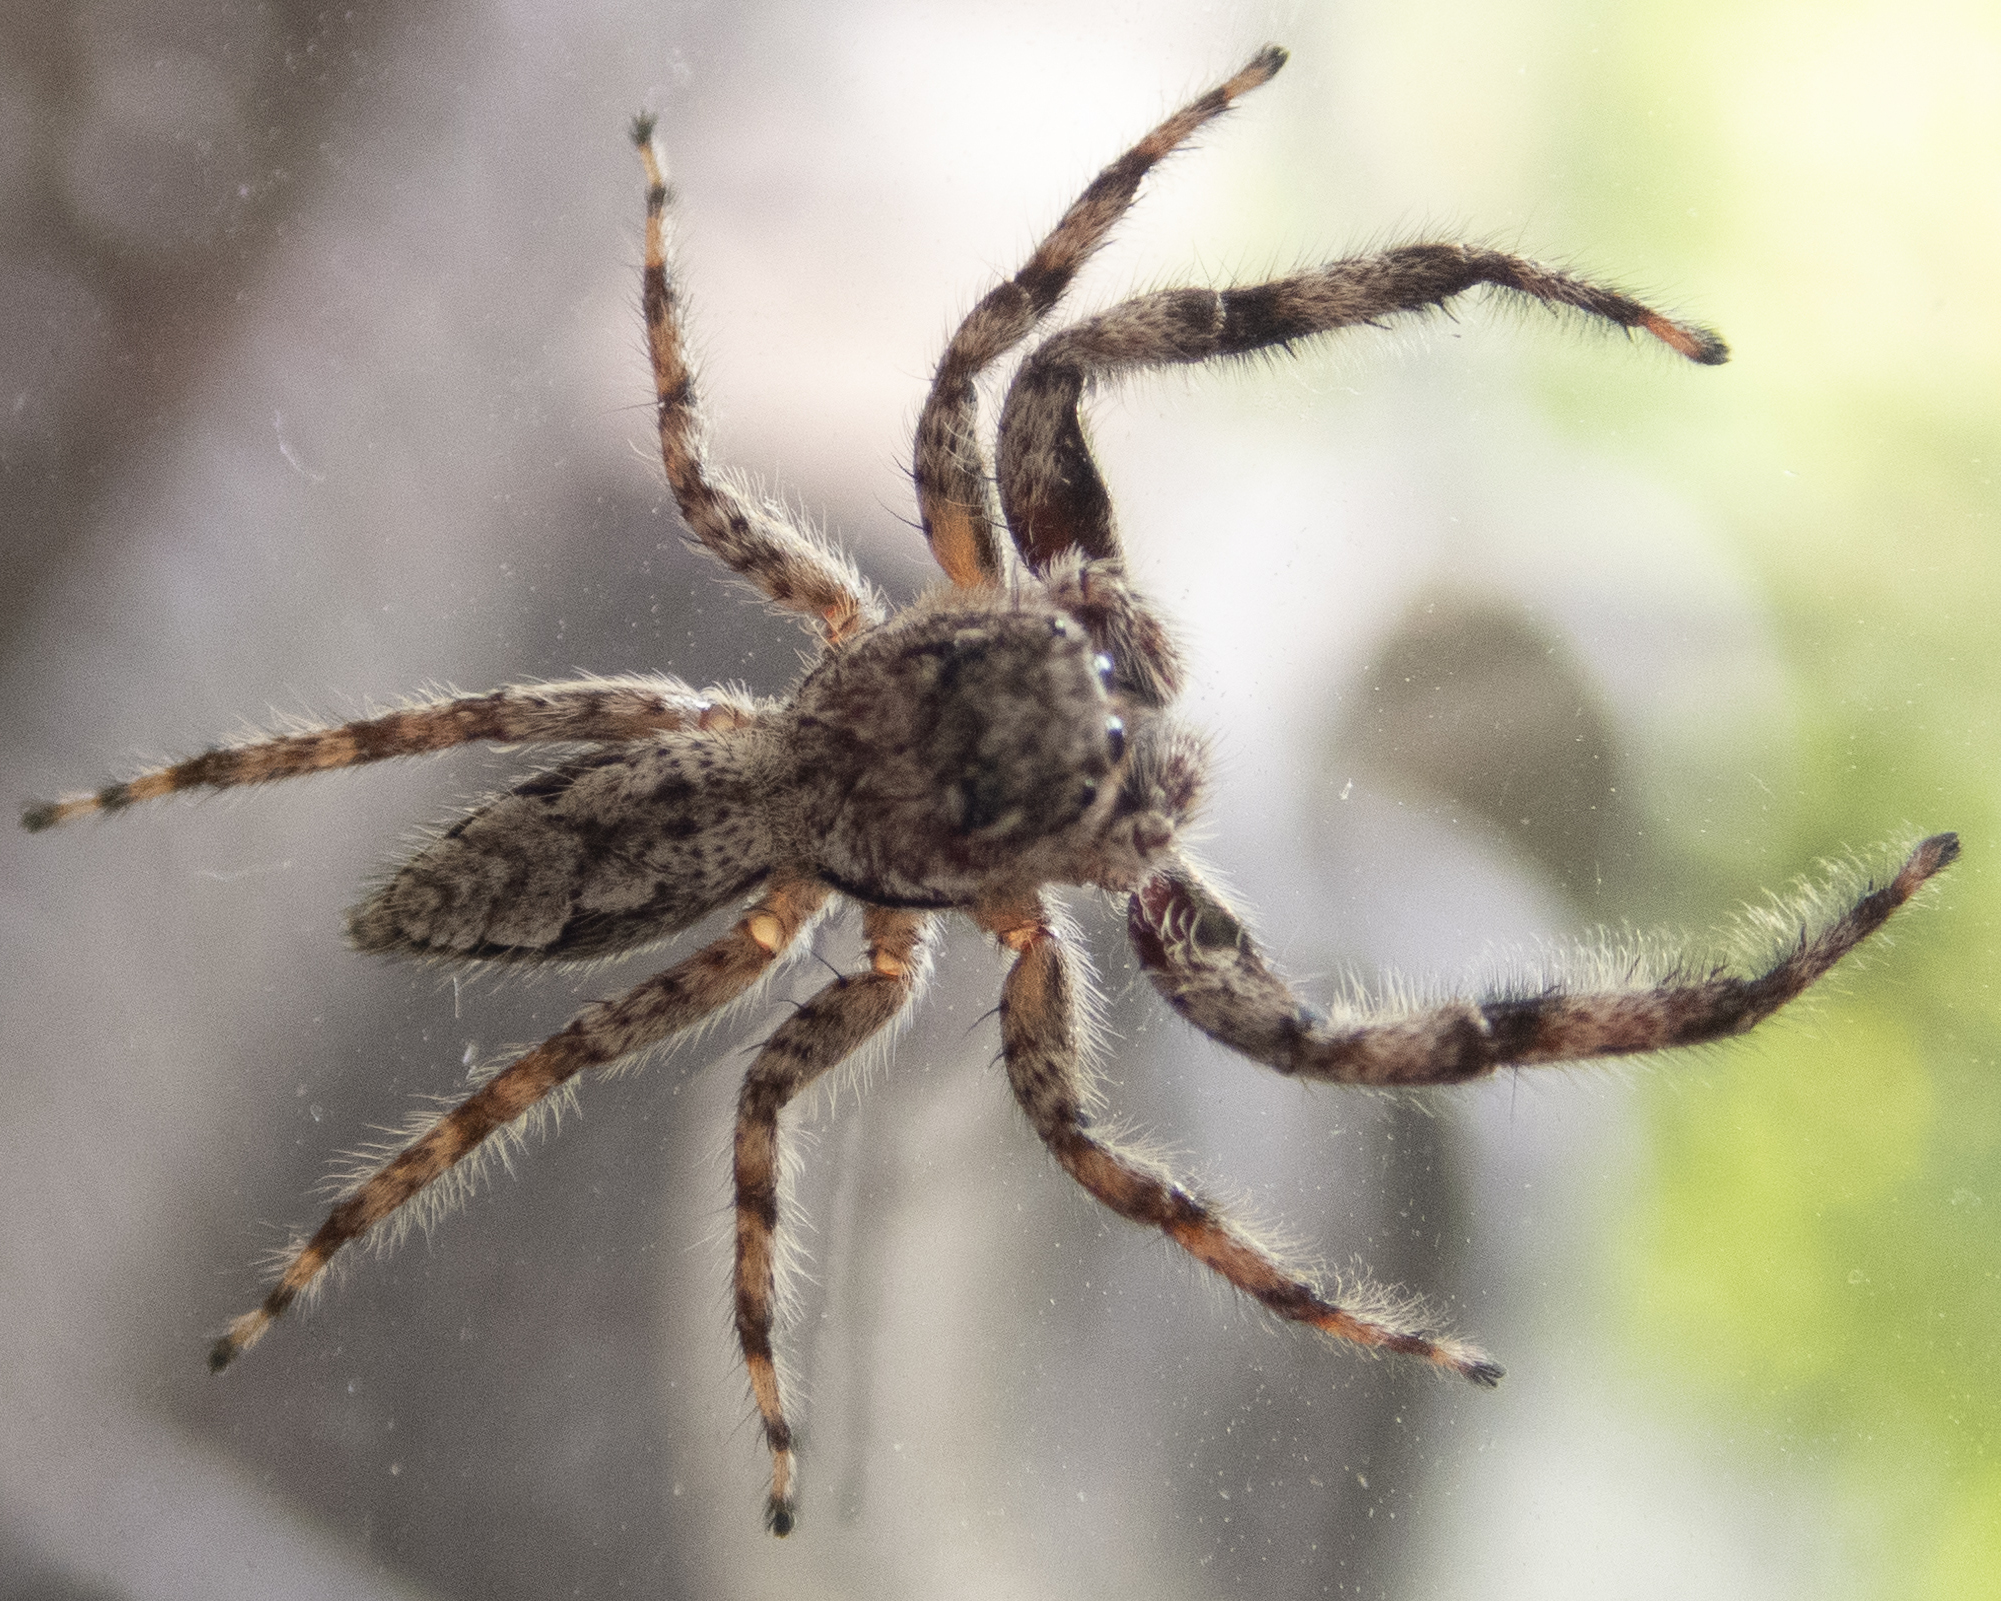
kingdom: Animalia
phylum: Arthropoda
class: Arachnida
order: Araneae
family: Salticidae
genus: Platycryptus
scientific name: Platycryptus undatus
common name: Tan jumping spider
